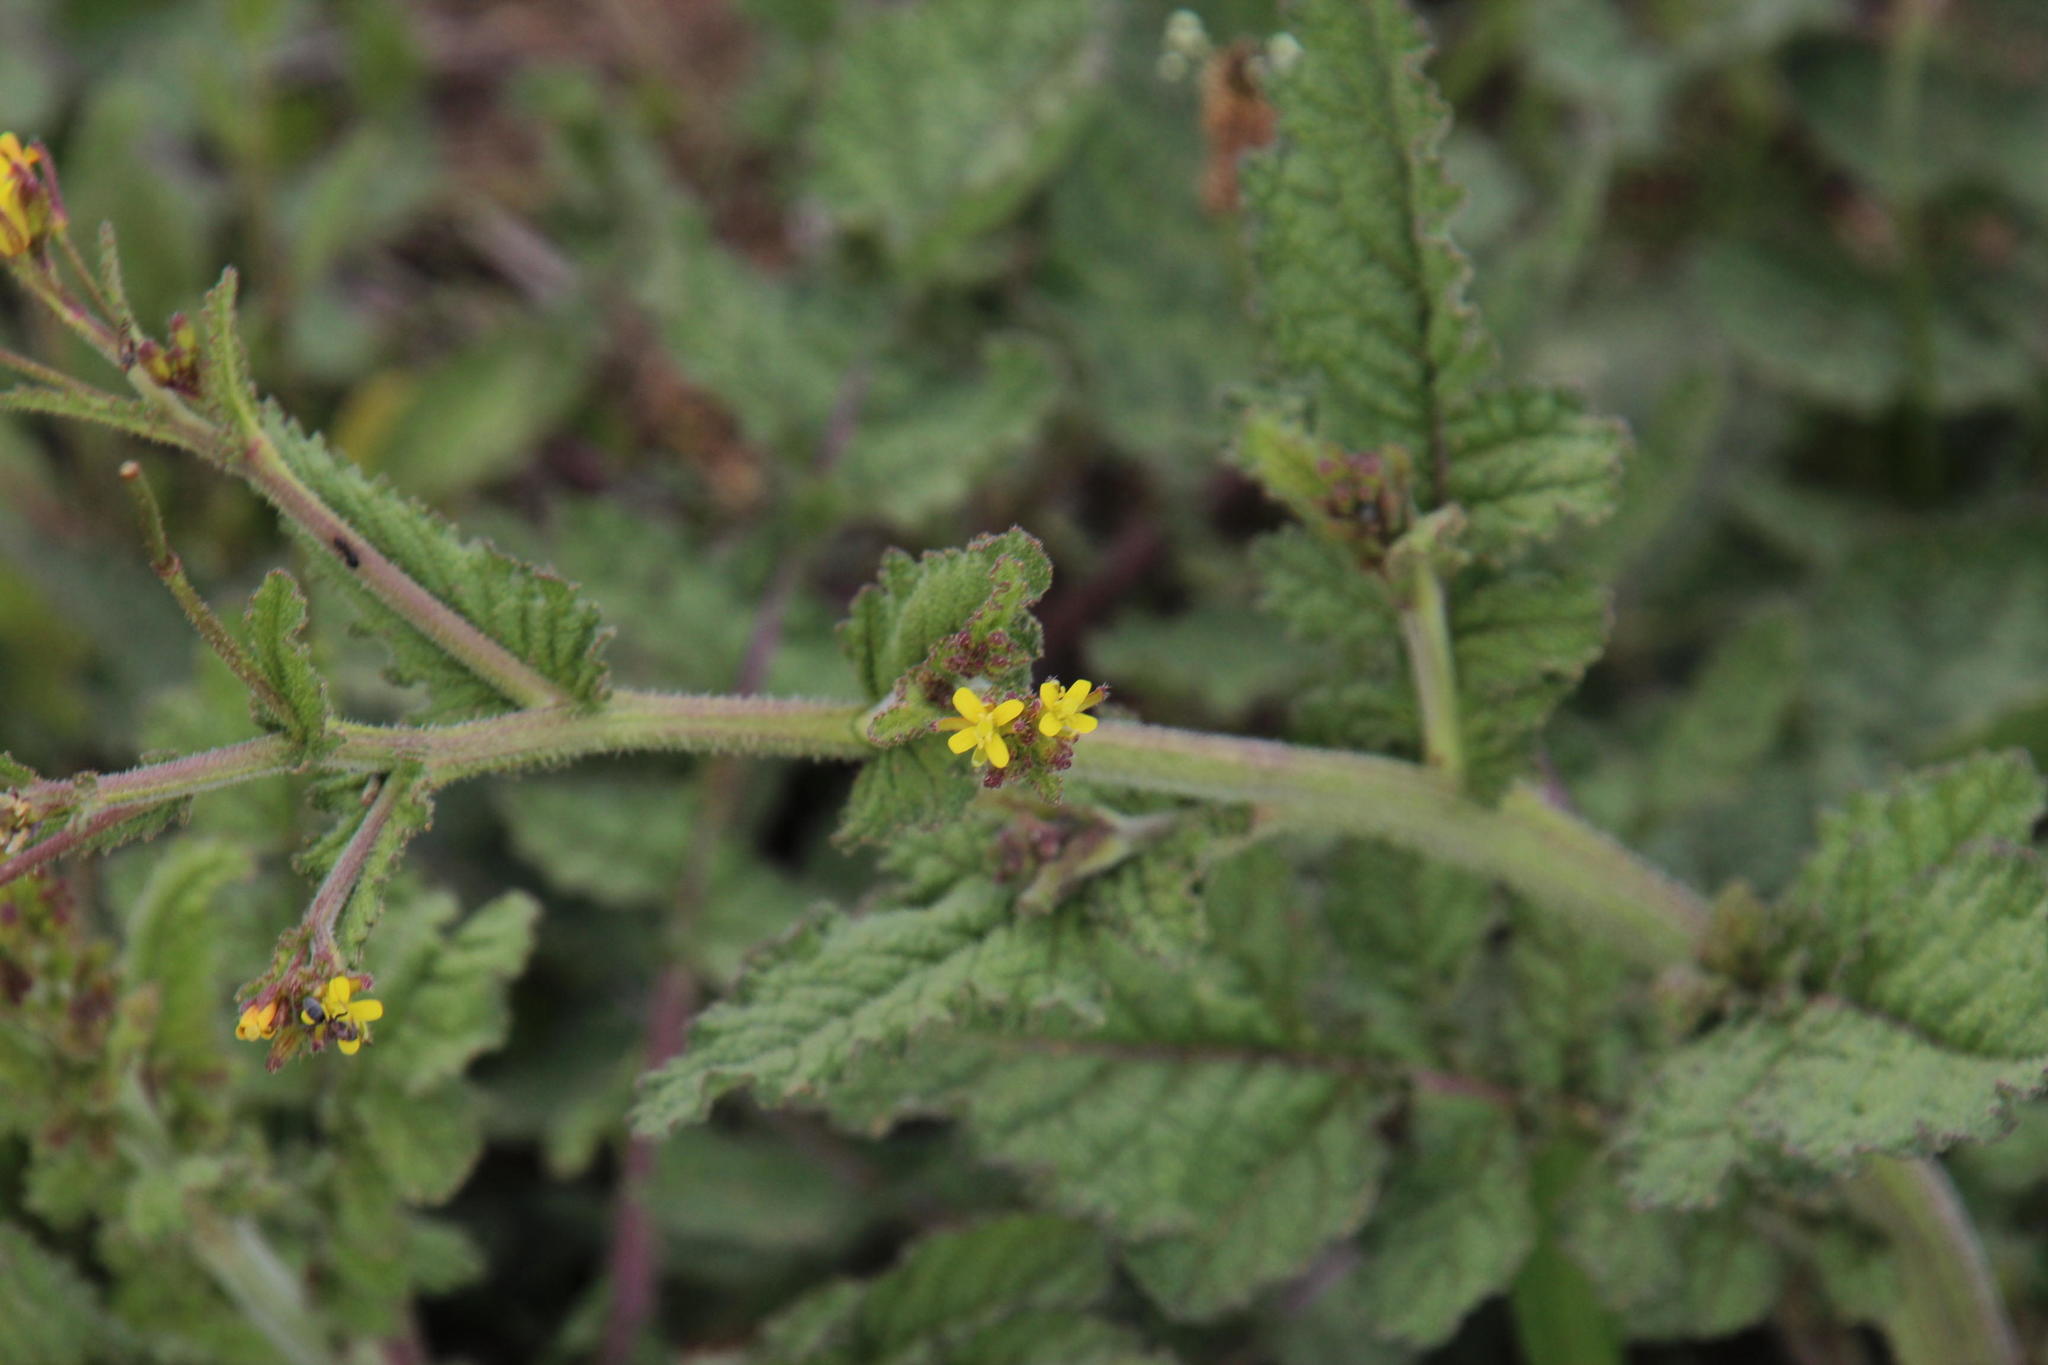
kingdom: Plantae
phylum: Tracheophyta
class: Magnoliopsida
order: Brassicales
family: Brassicaceae
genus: Erucastrum
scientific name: Erucastrum austroafricanum
